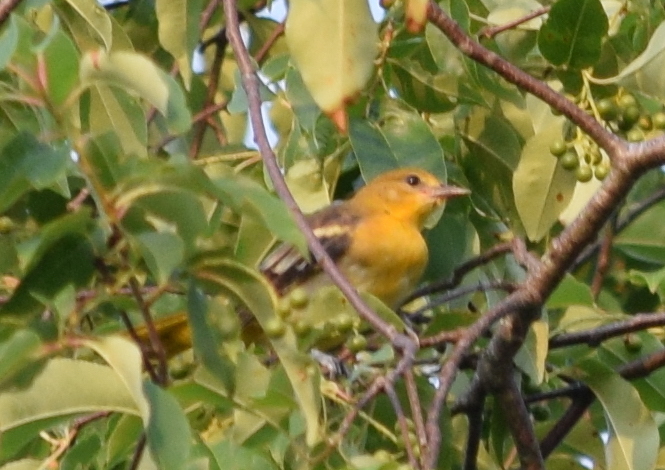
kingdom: Animalia
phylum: Chordata
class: Aves
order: Passeriformes
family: Icteridae
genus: Icterus
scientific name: Icterus galbula
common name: Baltimore oriole
